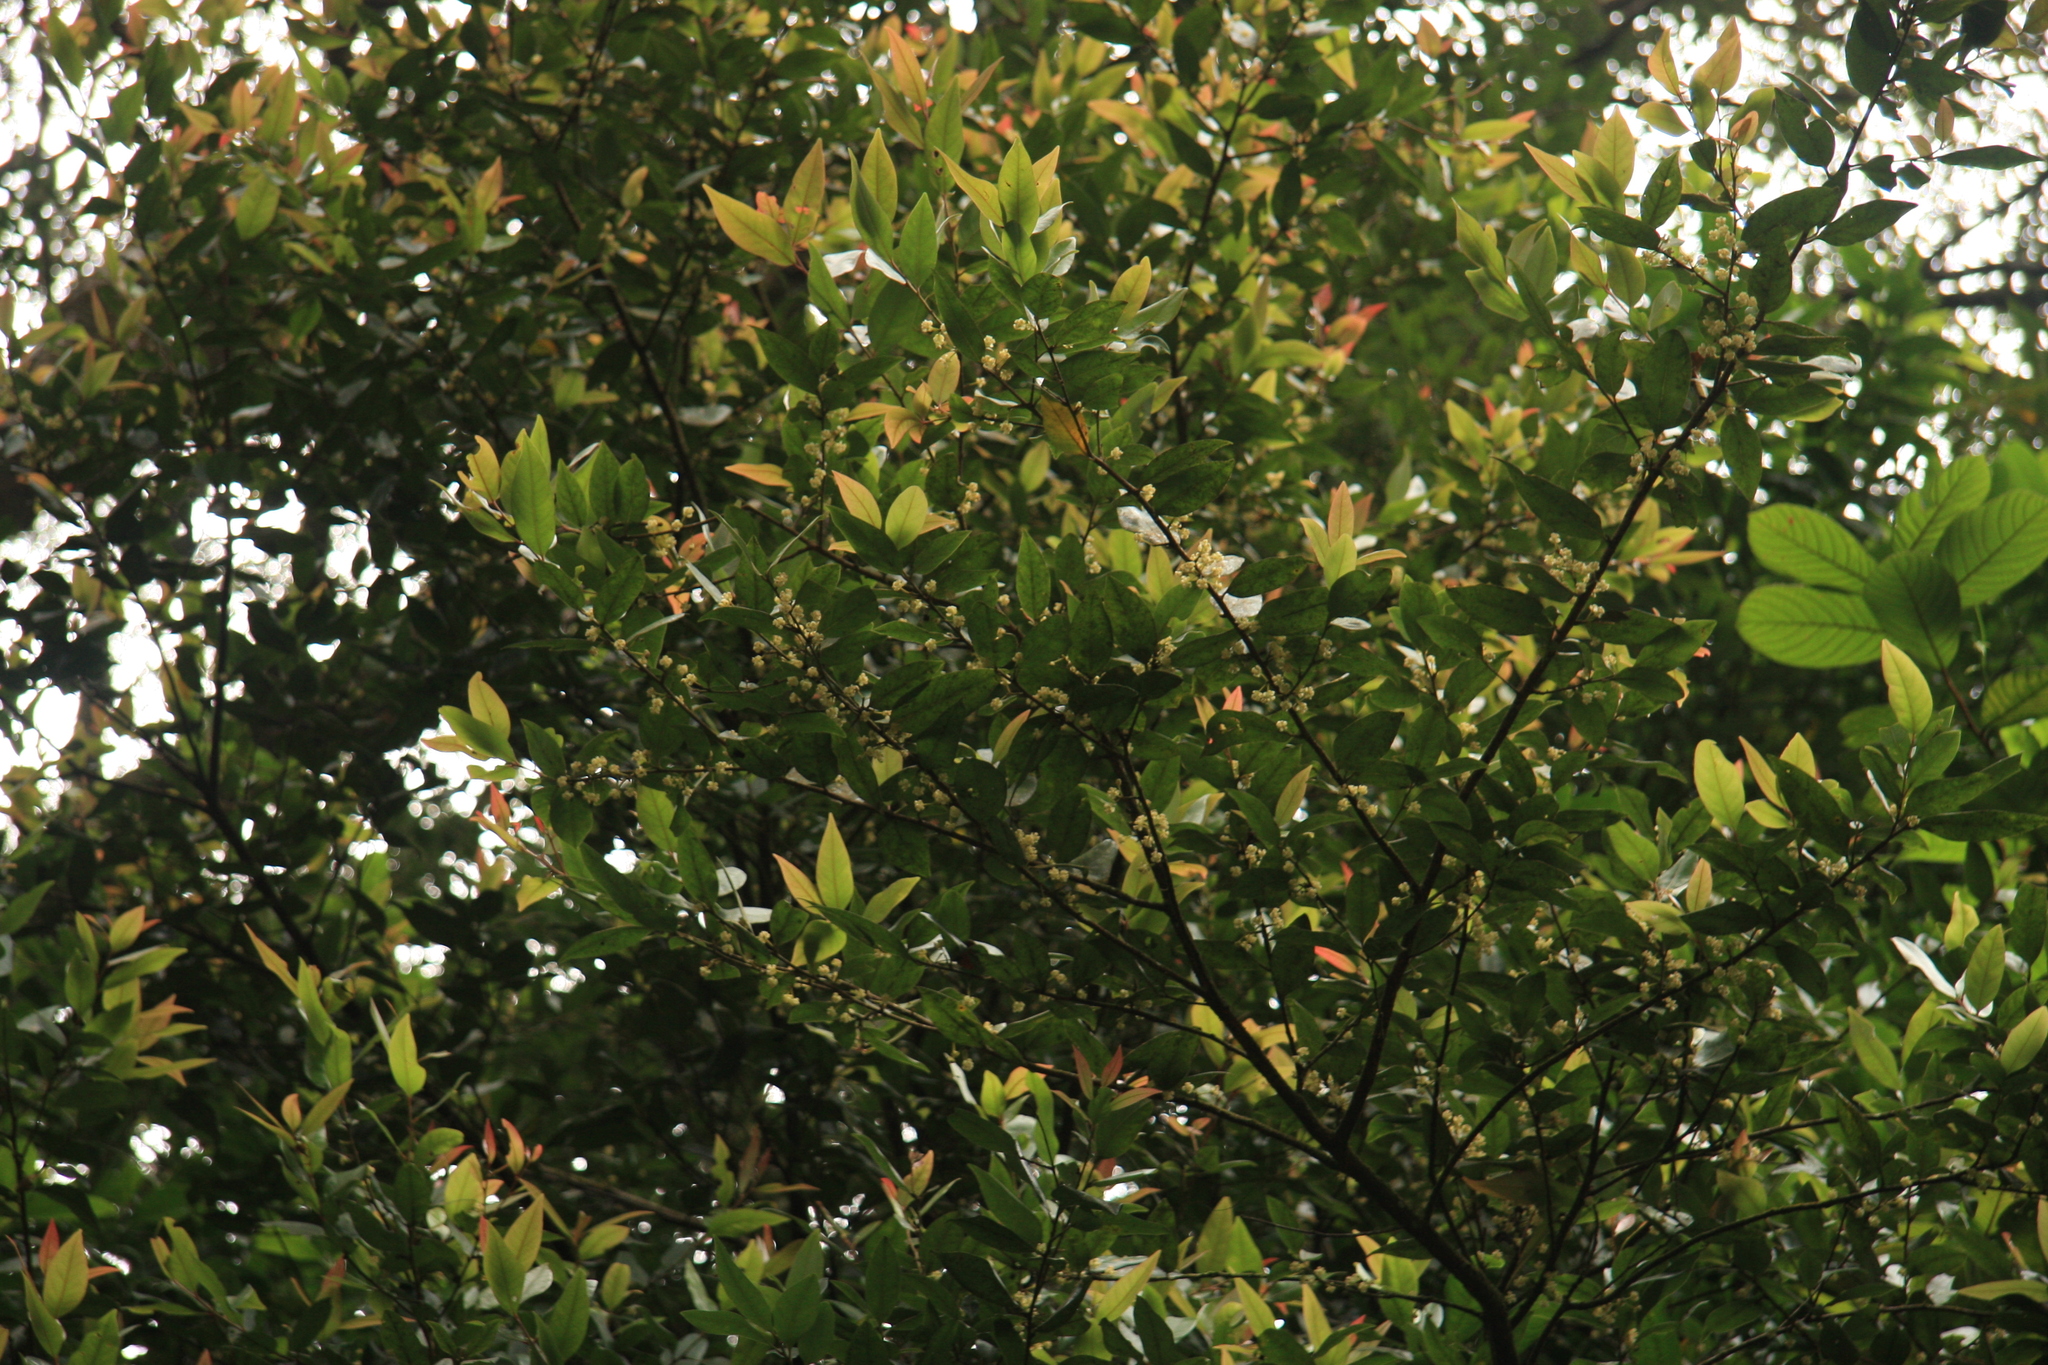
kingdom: Plantae
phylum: Tracheophyta
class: Magnoliopsida
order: Laurales
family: Lauraceae
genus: Litsea
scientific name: Litsea udayanii
